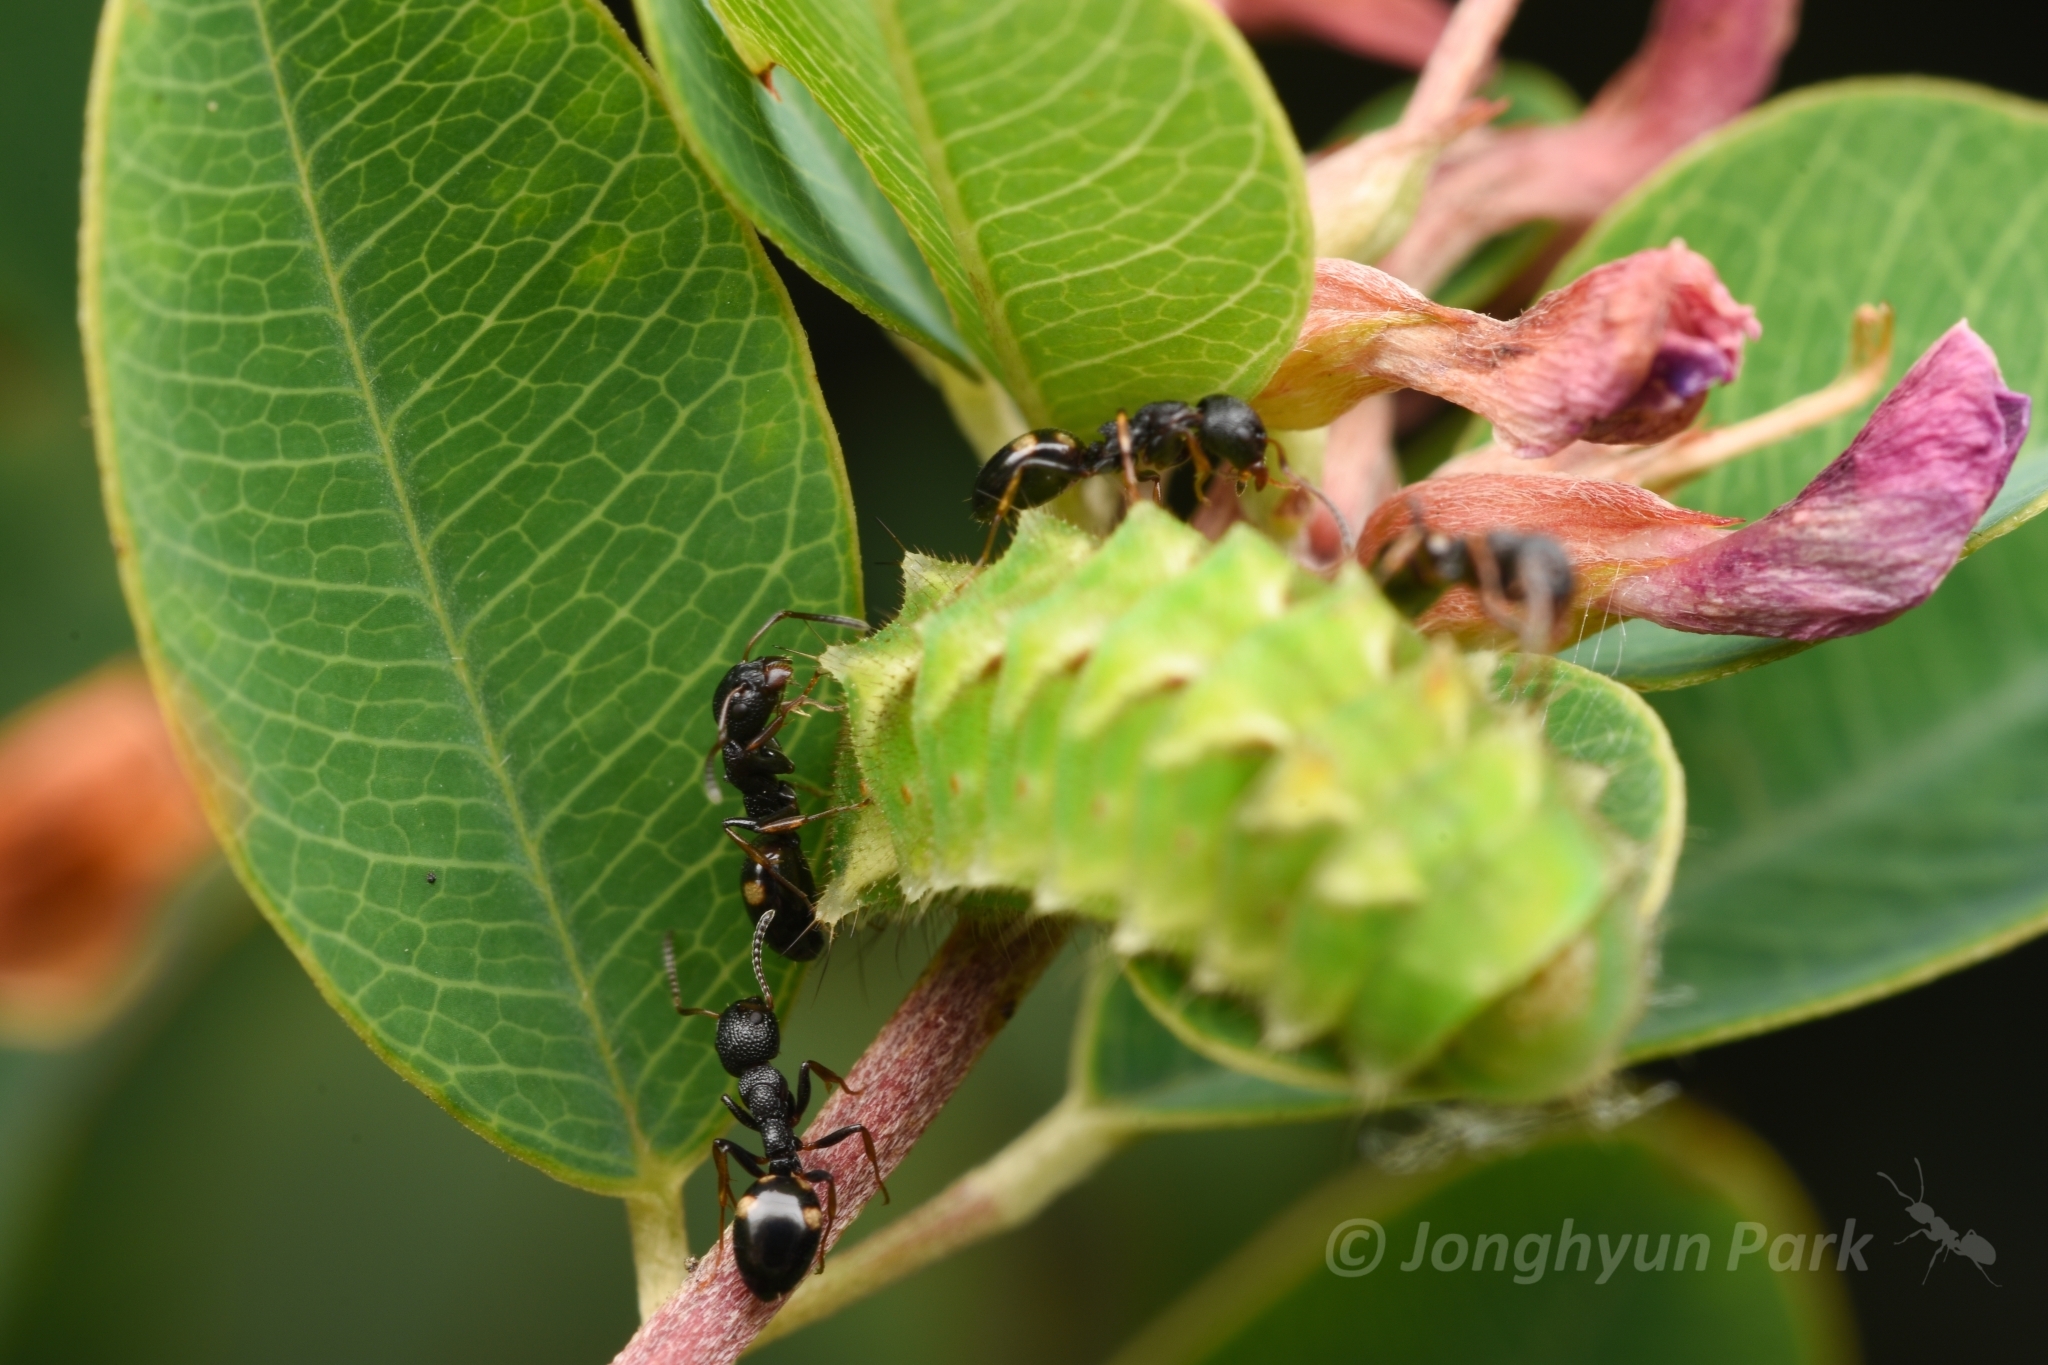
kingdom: Animalia
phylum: Arthropoda
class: Insecta
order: Hymenoptera
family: Formicidae
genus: Dolichoderus
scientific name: Dolichoderus sibiricus
